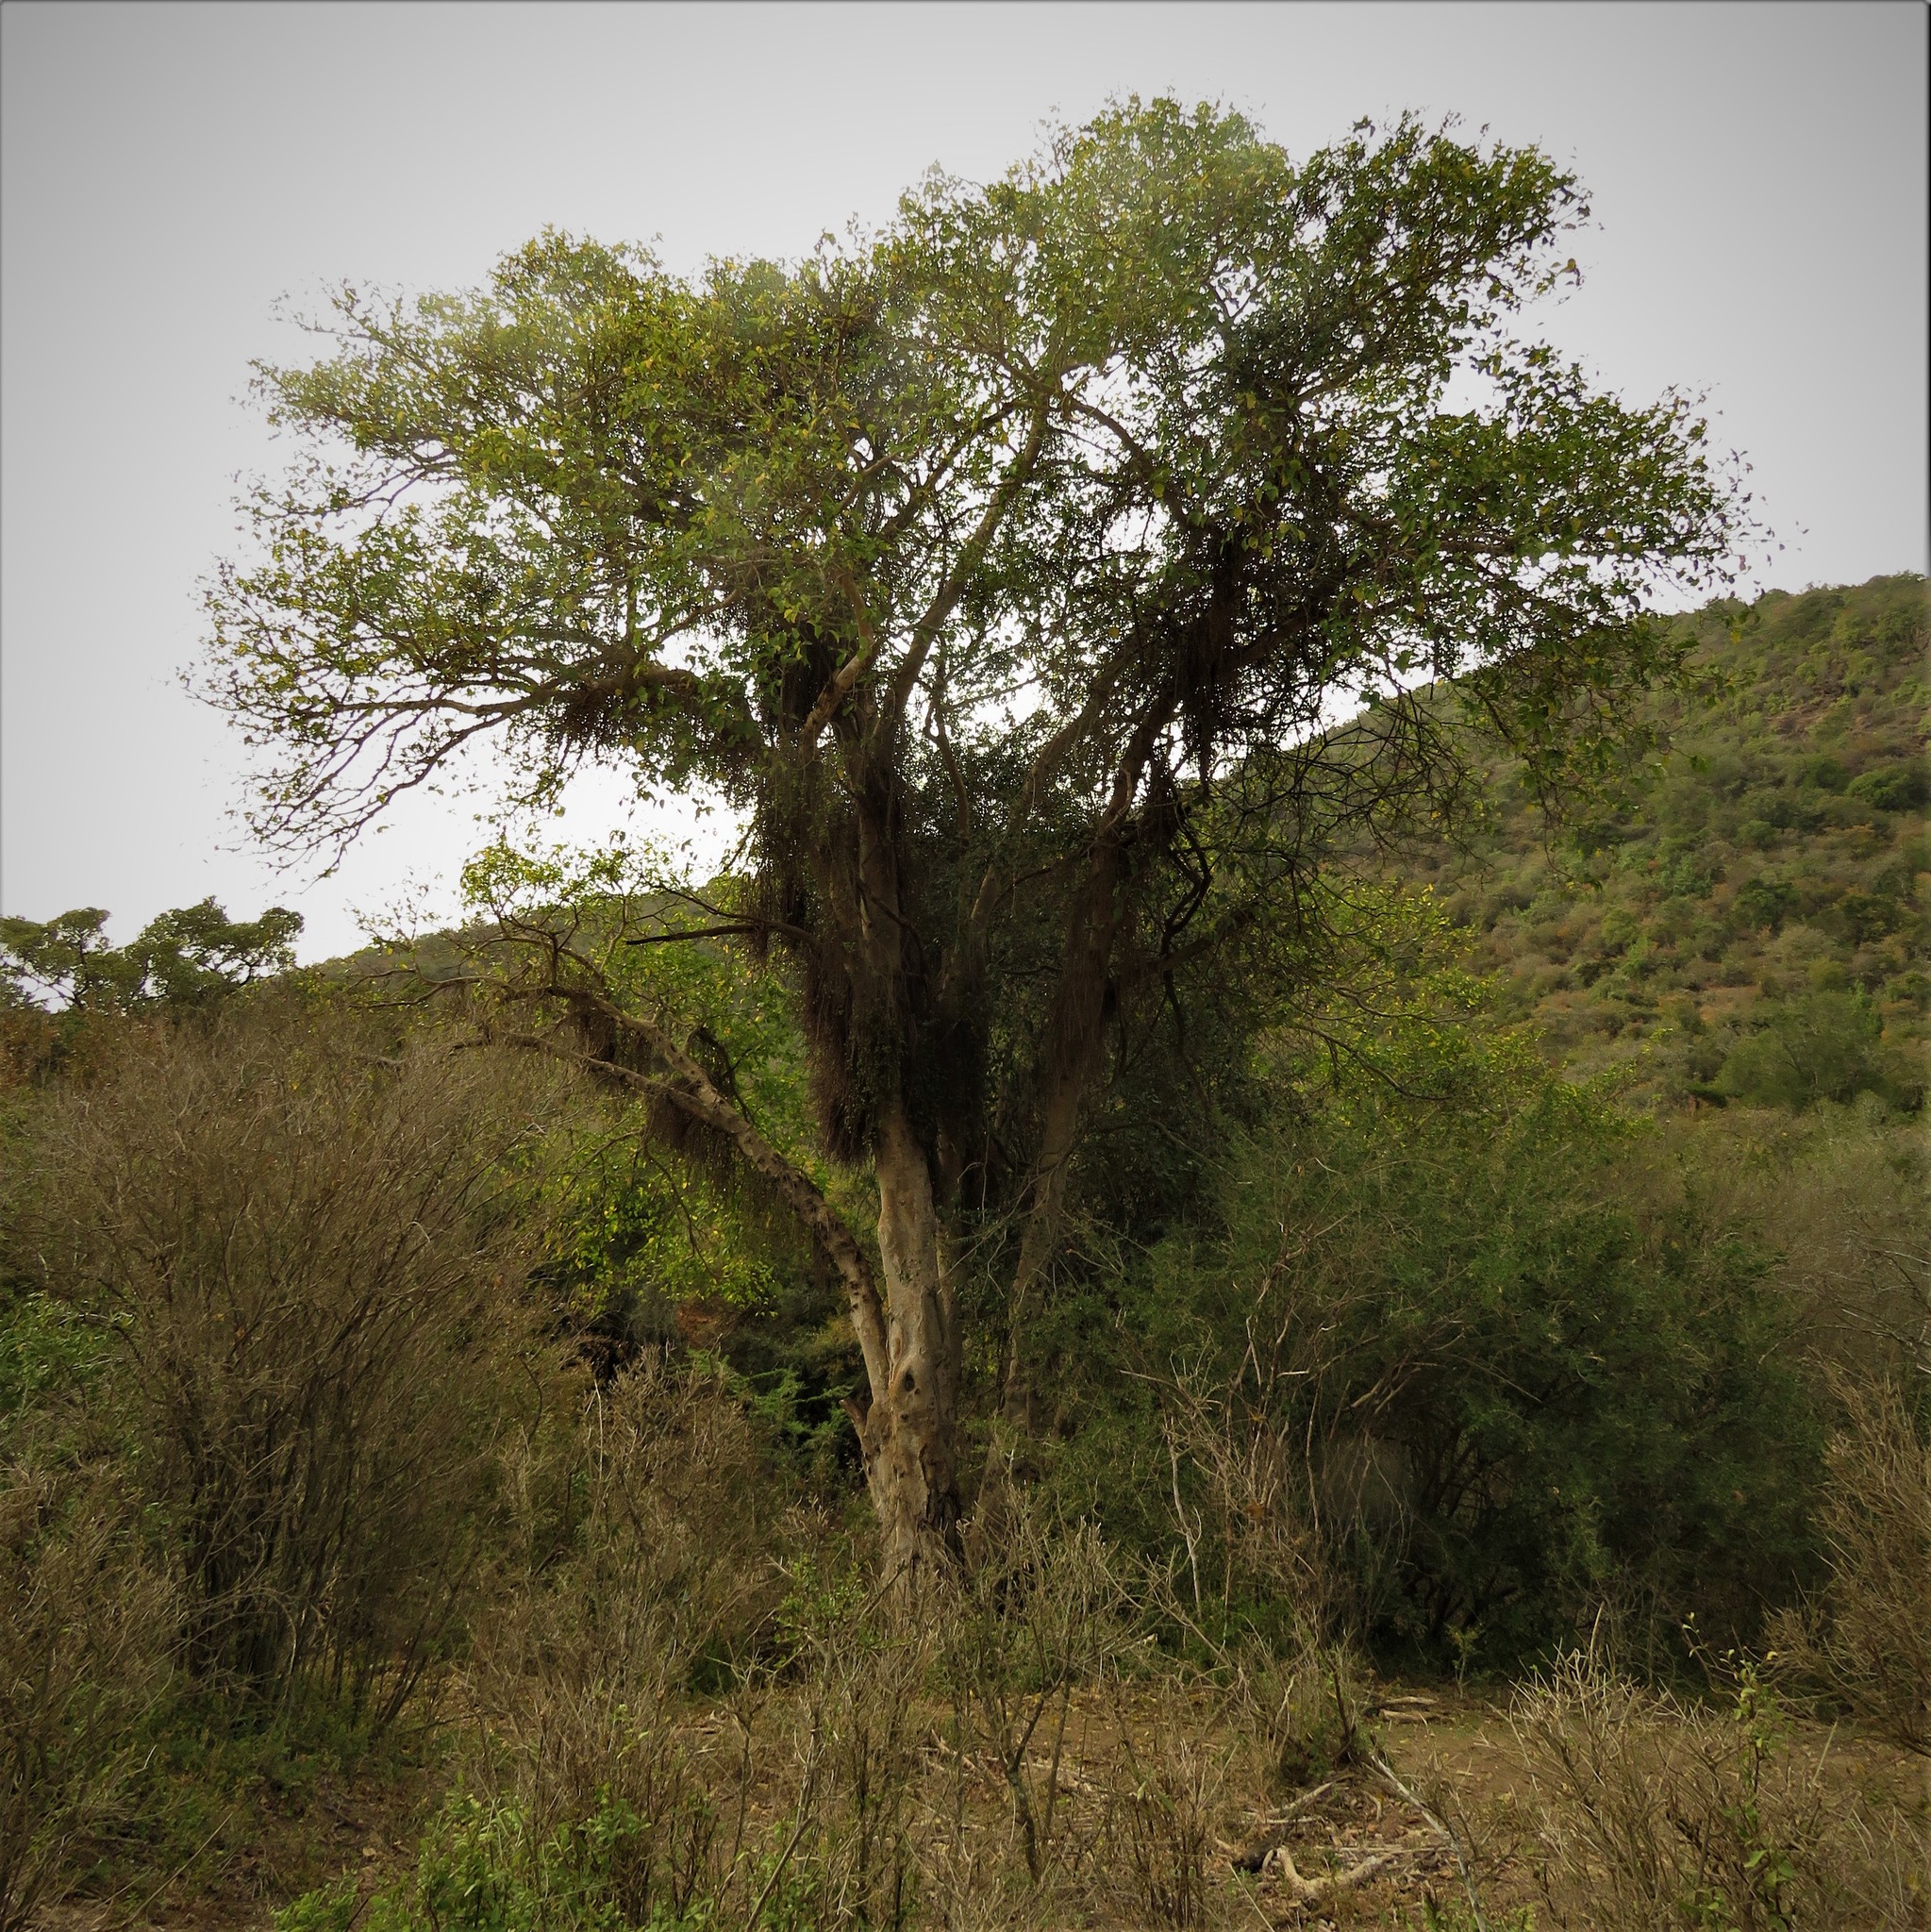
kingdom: Plantae
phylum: Tracheophyta
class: Magnoliopsida
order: Rosales
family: Moraceae
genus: Ficus
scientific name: Ficus sur
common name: Cape fig
